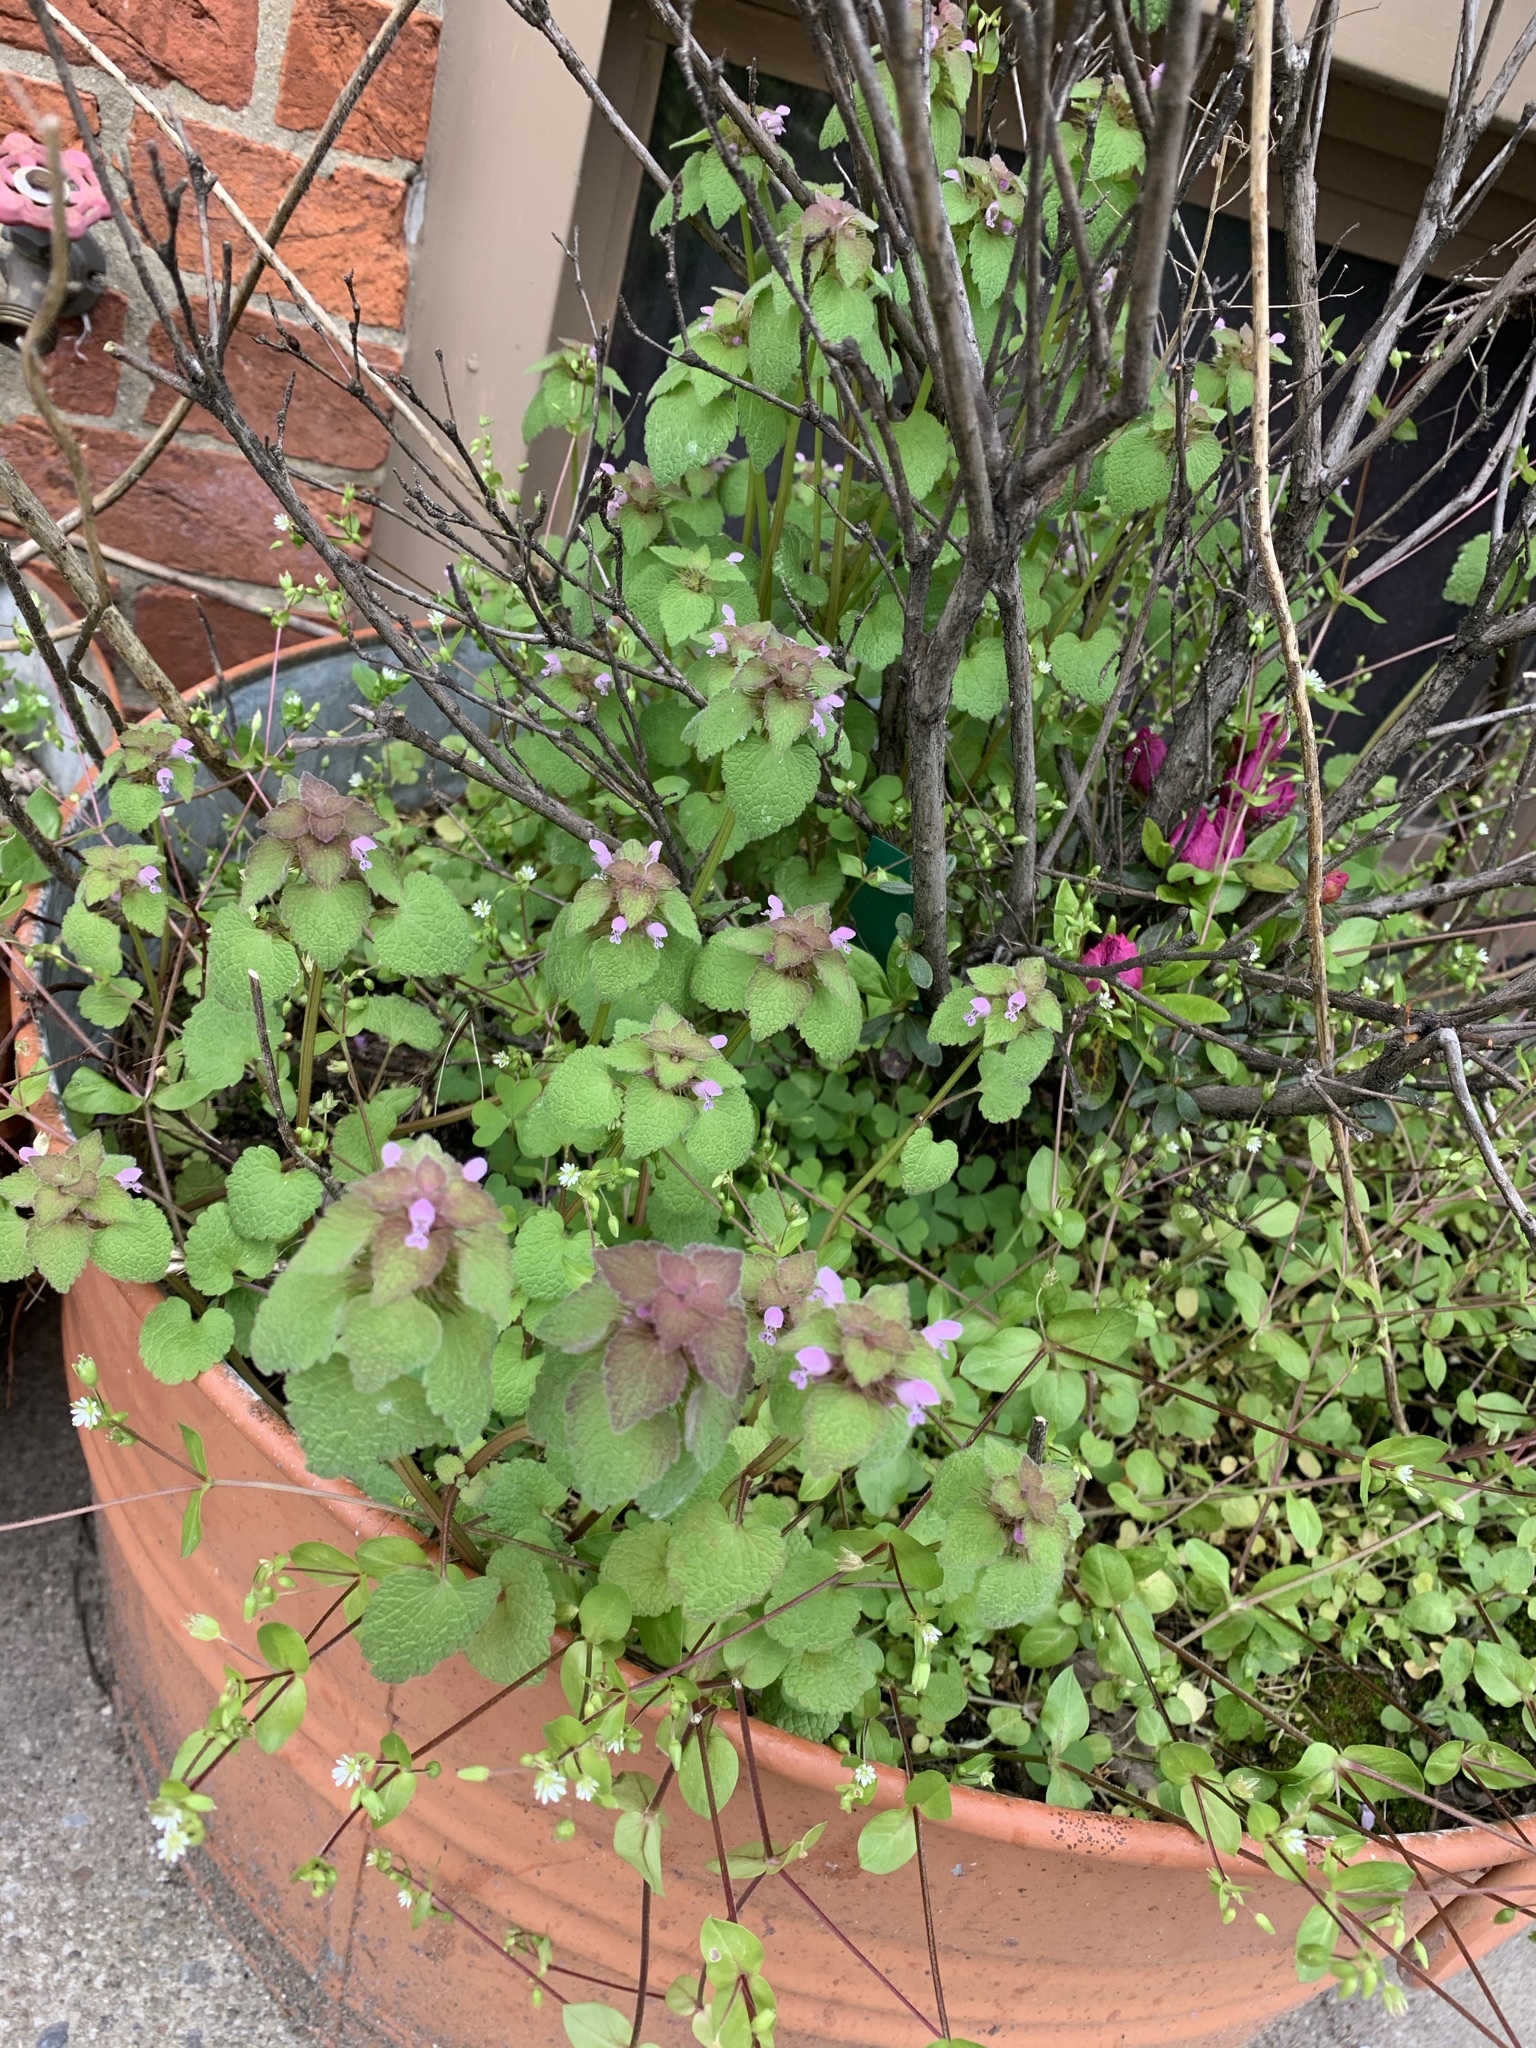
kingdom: Plantae
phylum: Tracheophyta
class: Magnoliopsida
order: Lamiales
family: Lamiaceae
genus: Lamium
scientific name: Lamium purpureum
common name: Red dead-nettle
